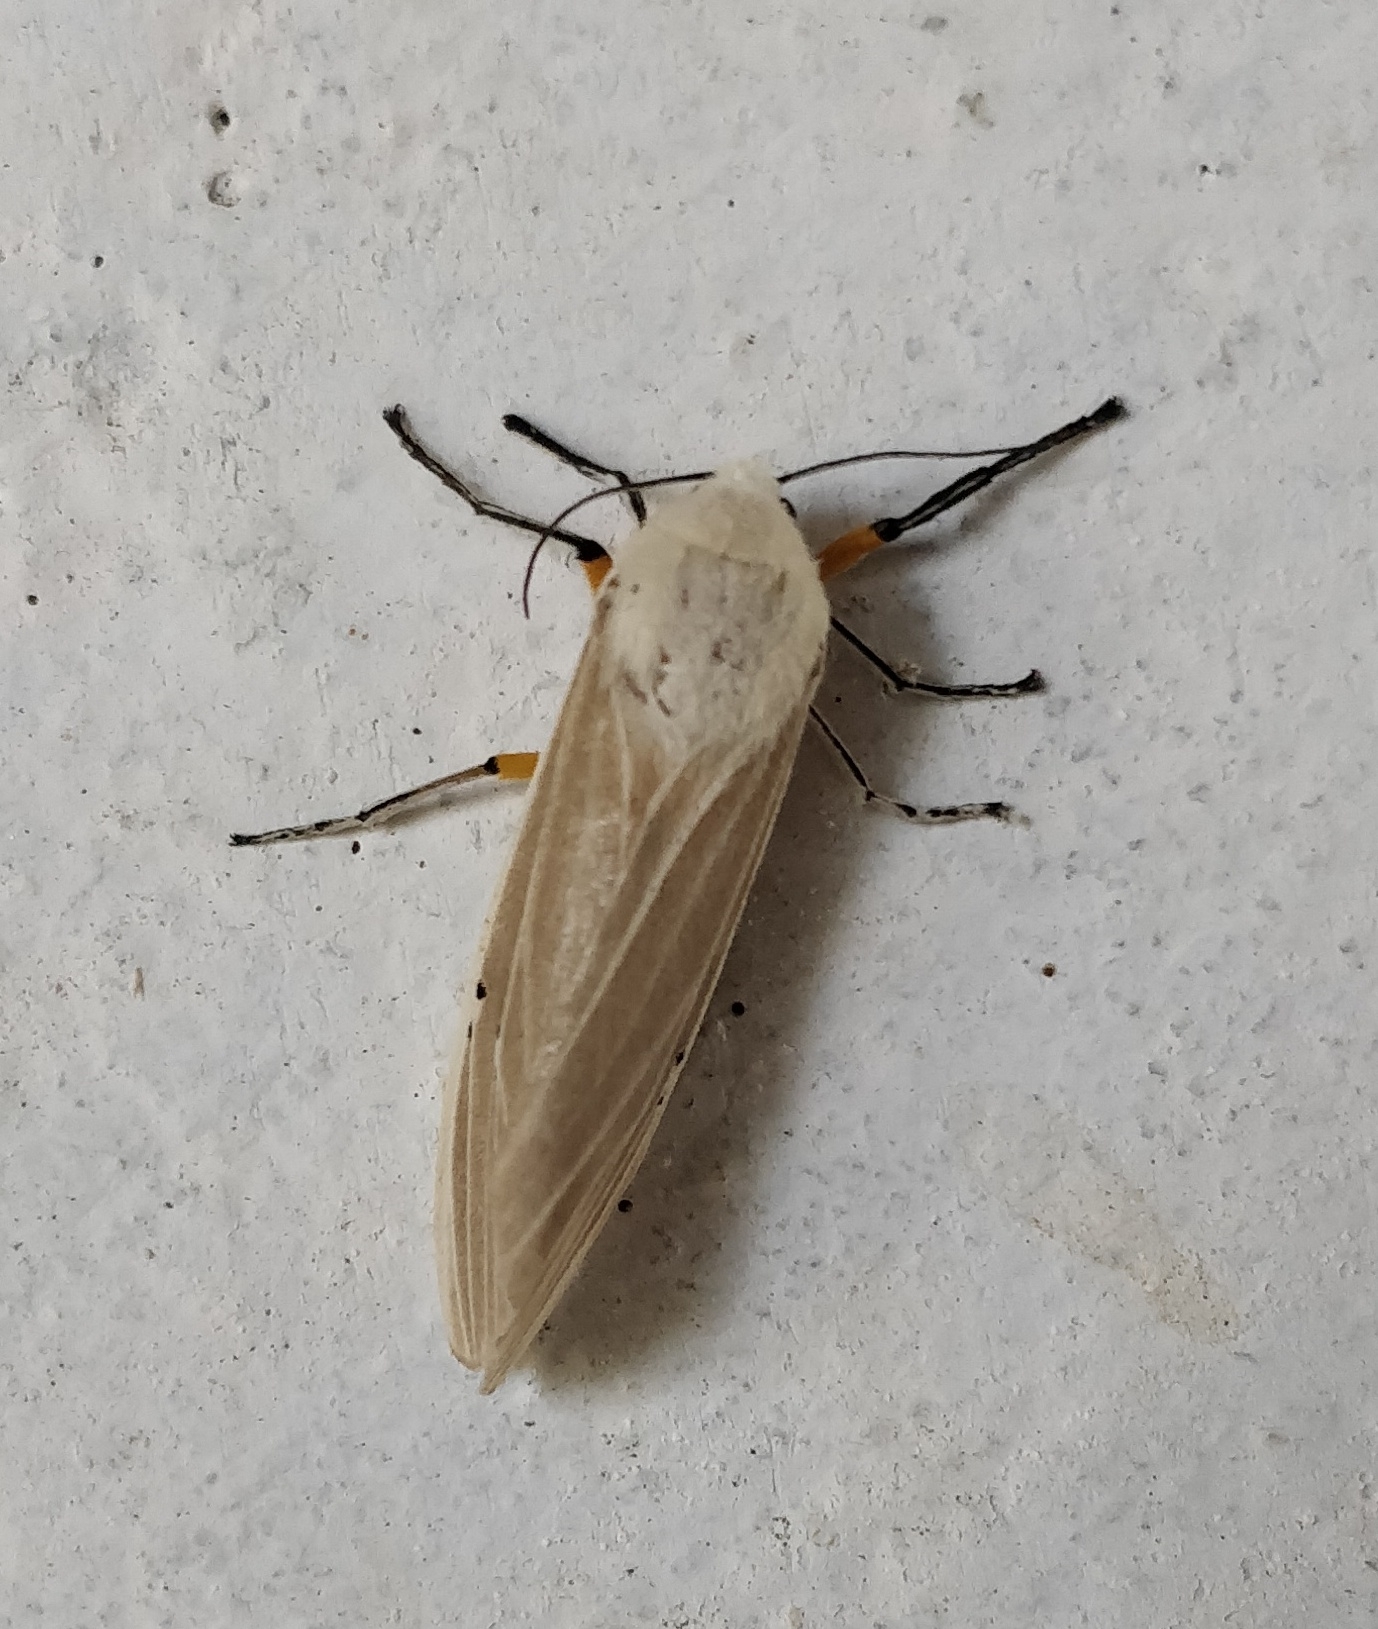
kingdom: Animalia
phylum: Arthropoda
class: Insecta
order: Lepidoptera
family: Erebidae
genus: Creatonotos
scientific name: Creatonotos transiens
